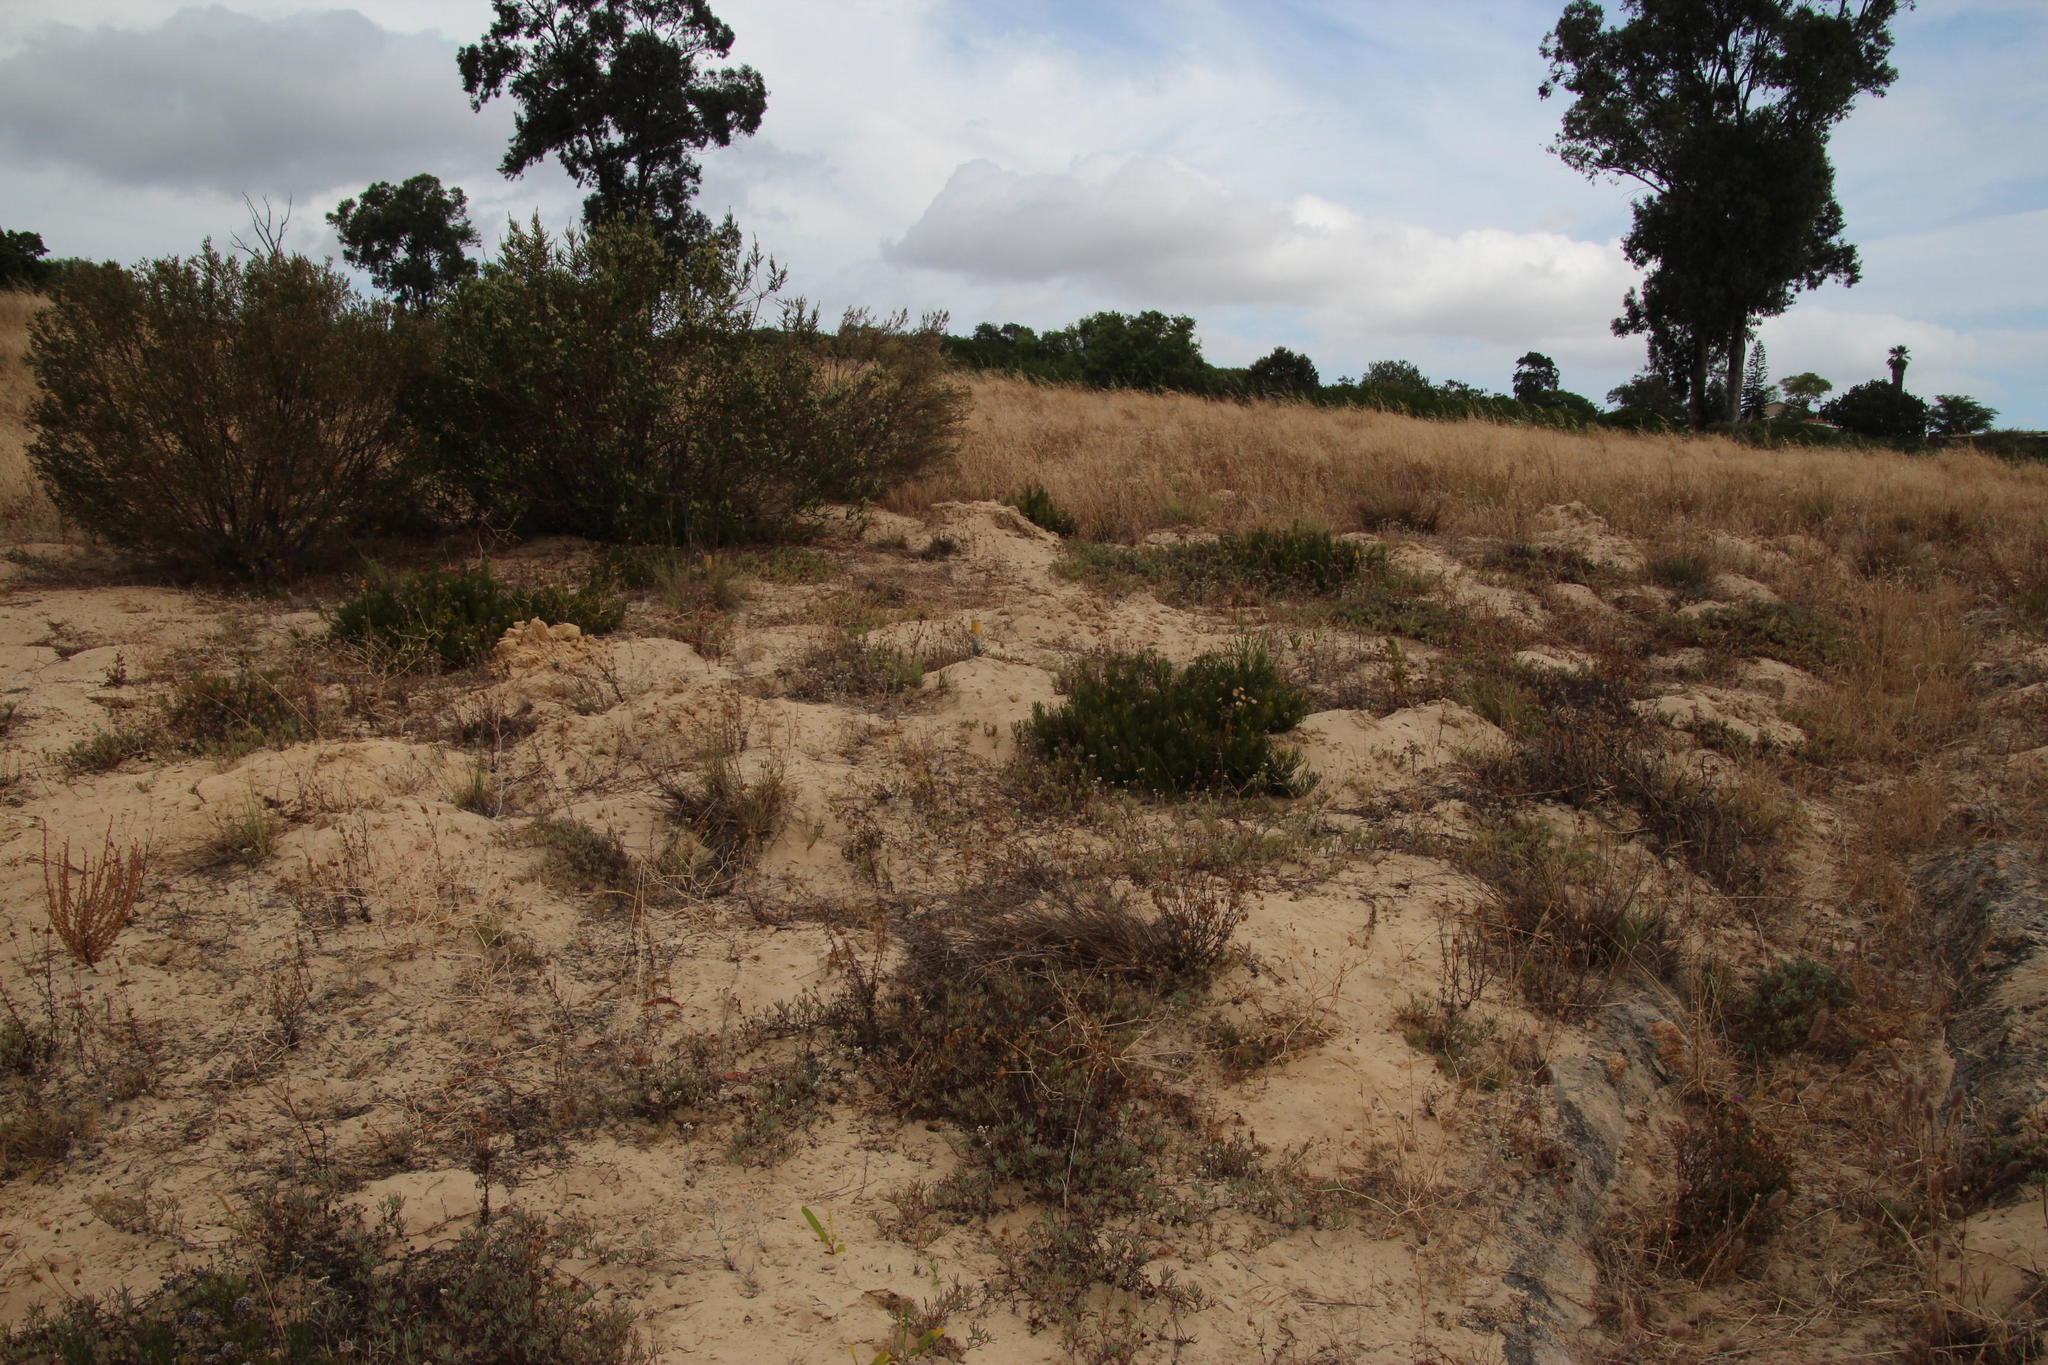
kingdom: Plantae
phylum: Tracheophyta
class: Magnoliopsida
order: Proteales
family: Proteaceae
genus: Serruria
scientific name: Serruria furcellata
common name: Kraaifontein spiderhead
